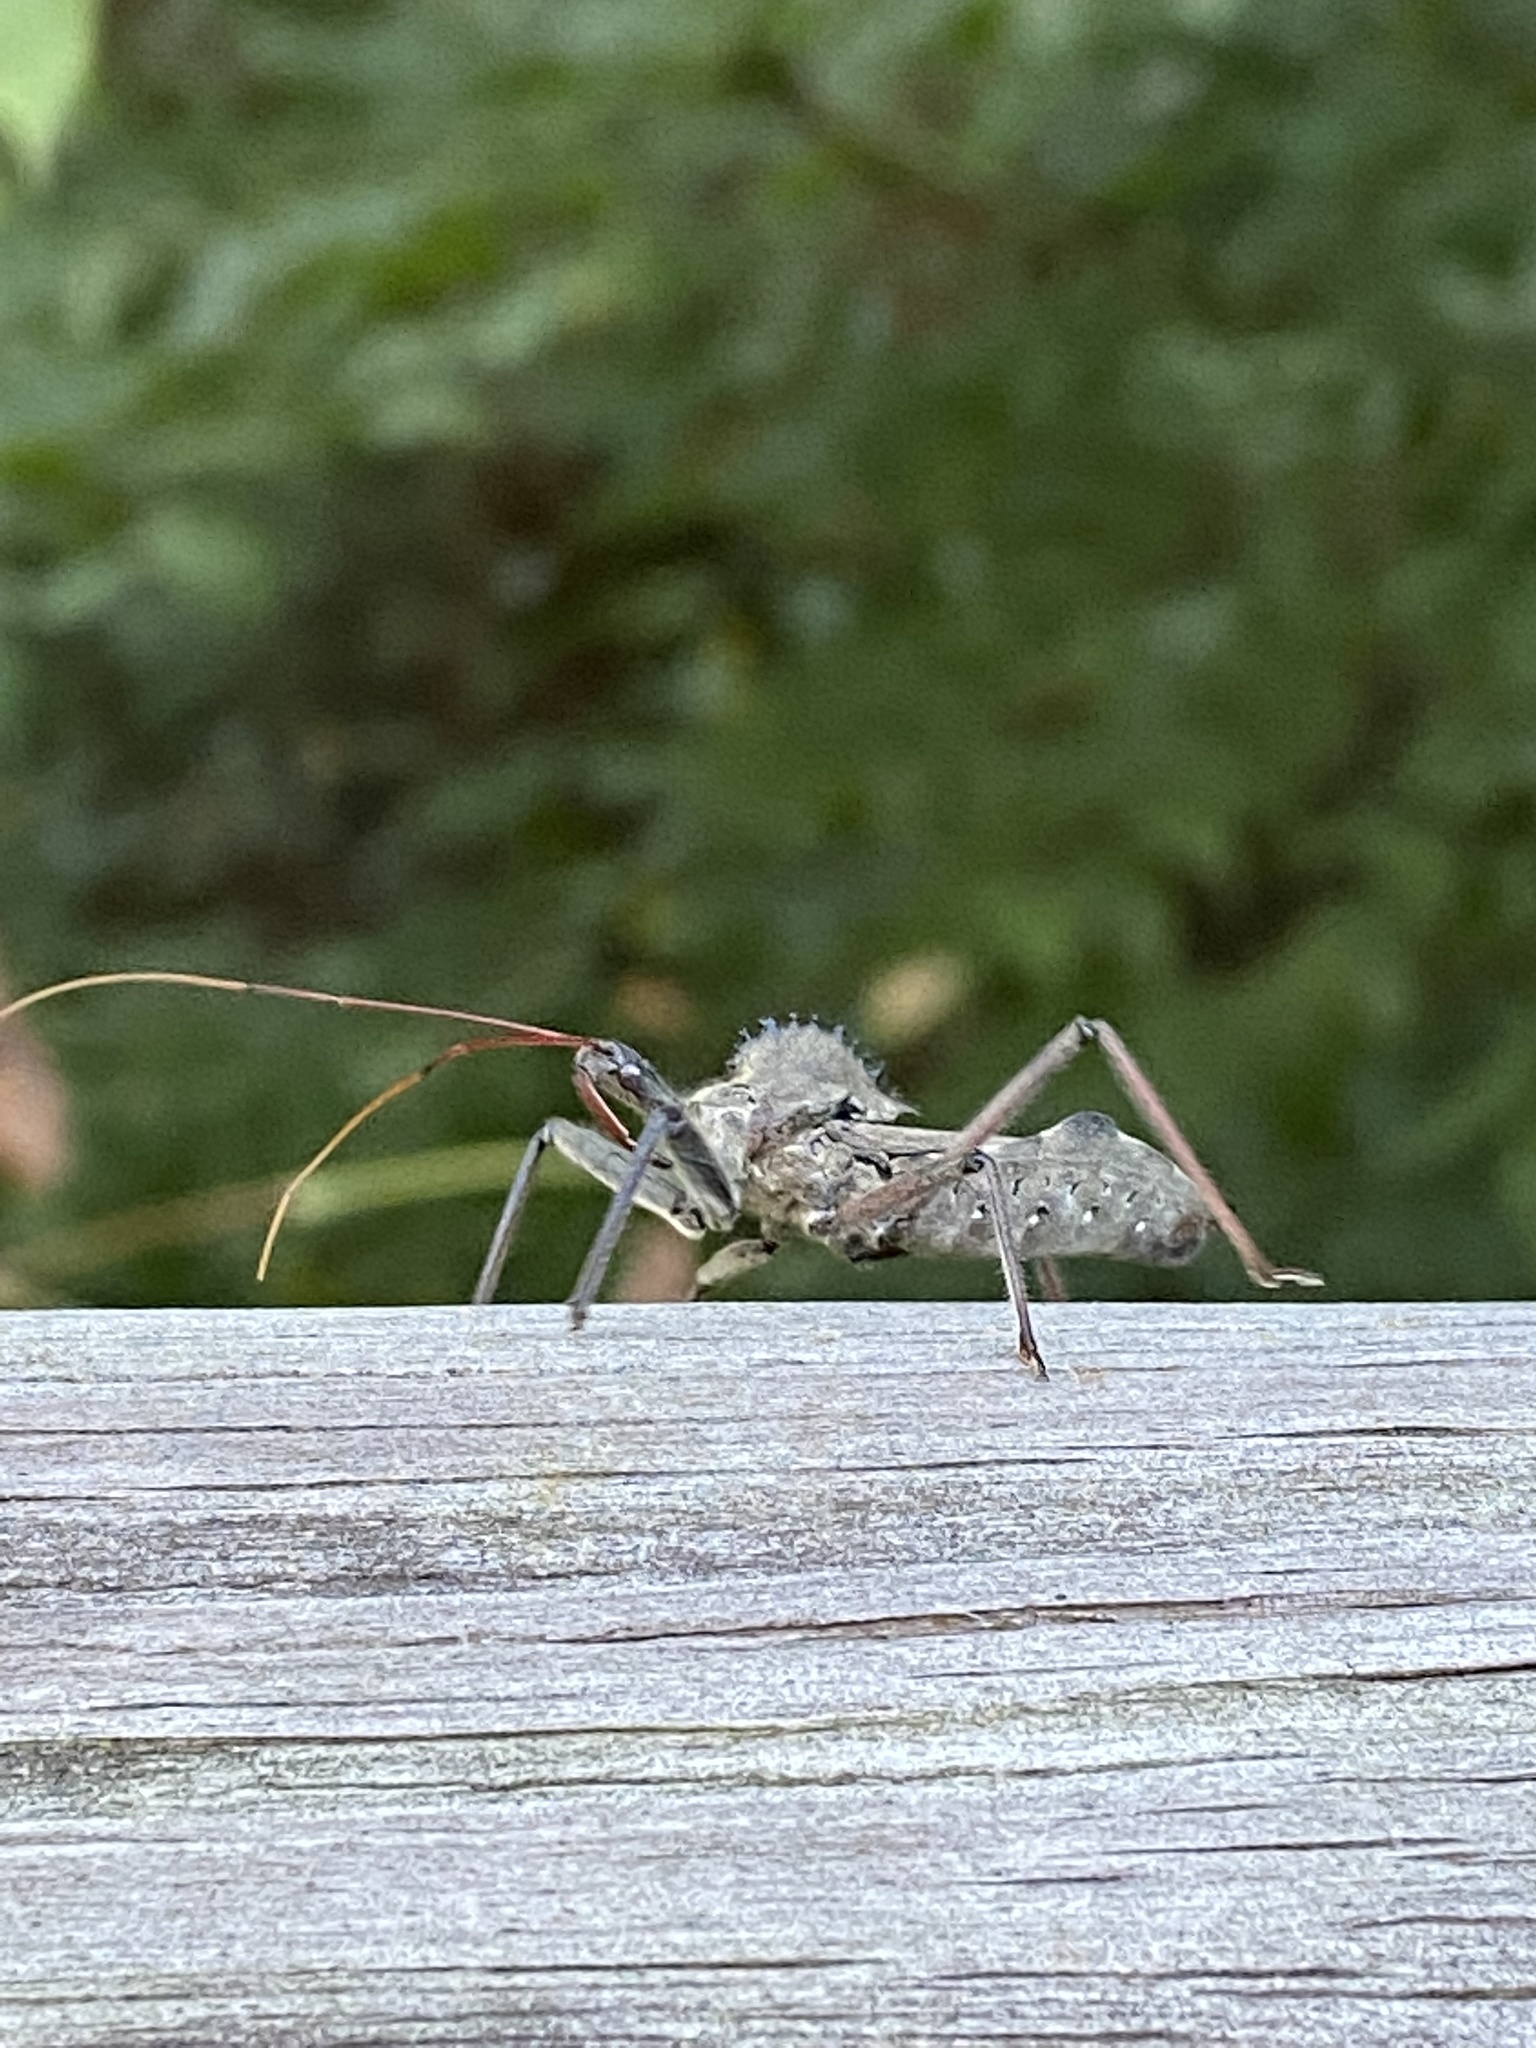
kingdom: Animalia
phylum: Arthropoda
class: Insecta
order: Hemiptera
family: Reduviidae
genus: Arilus
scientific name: Arilus cristatus
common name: North american wheel bug
